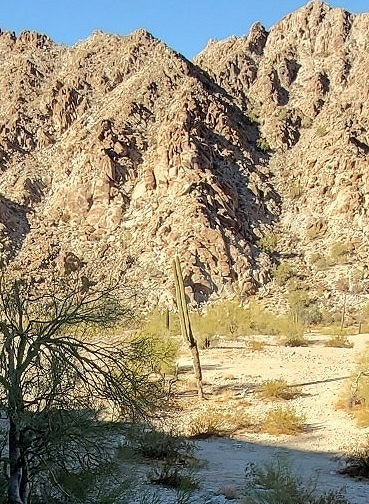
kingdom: Plantae
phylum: Tracheophyta
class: Magnoliopsida
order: Caryophyllales
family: Cactaceae
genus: Carnegiea
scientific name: Carnegiea gigantea
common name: Saguaro
